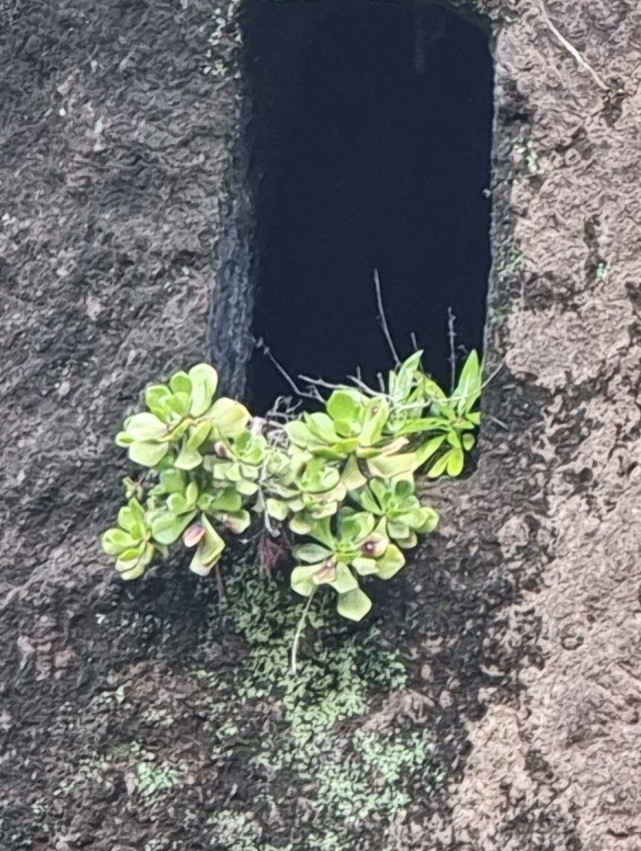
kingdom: Plantae
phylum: Tracheophyta
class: Magnoliopsida
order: Saxifragales
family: Crassulaceae
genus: Aeonium
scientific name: Aeonium glutinosum
